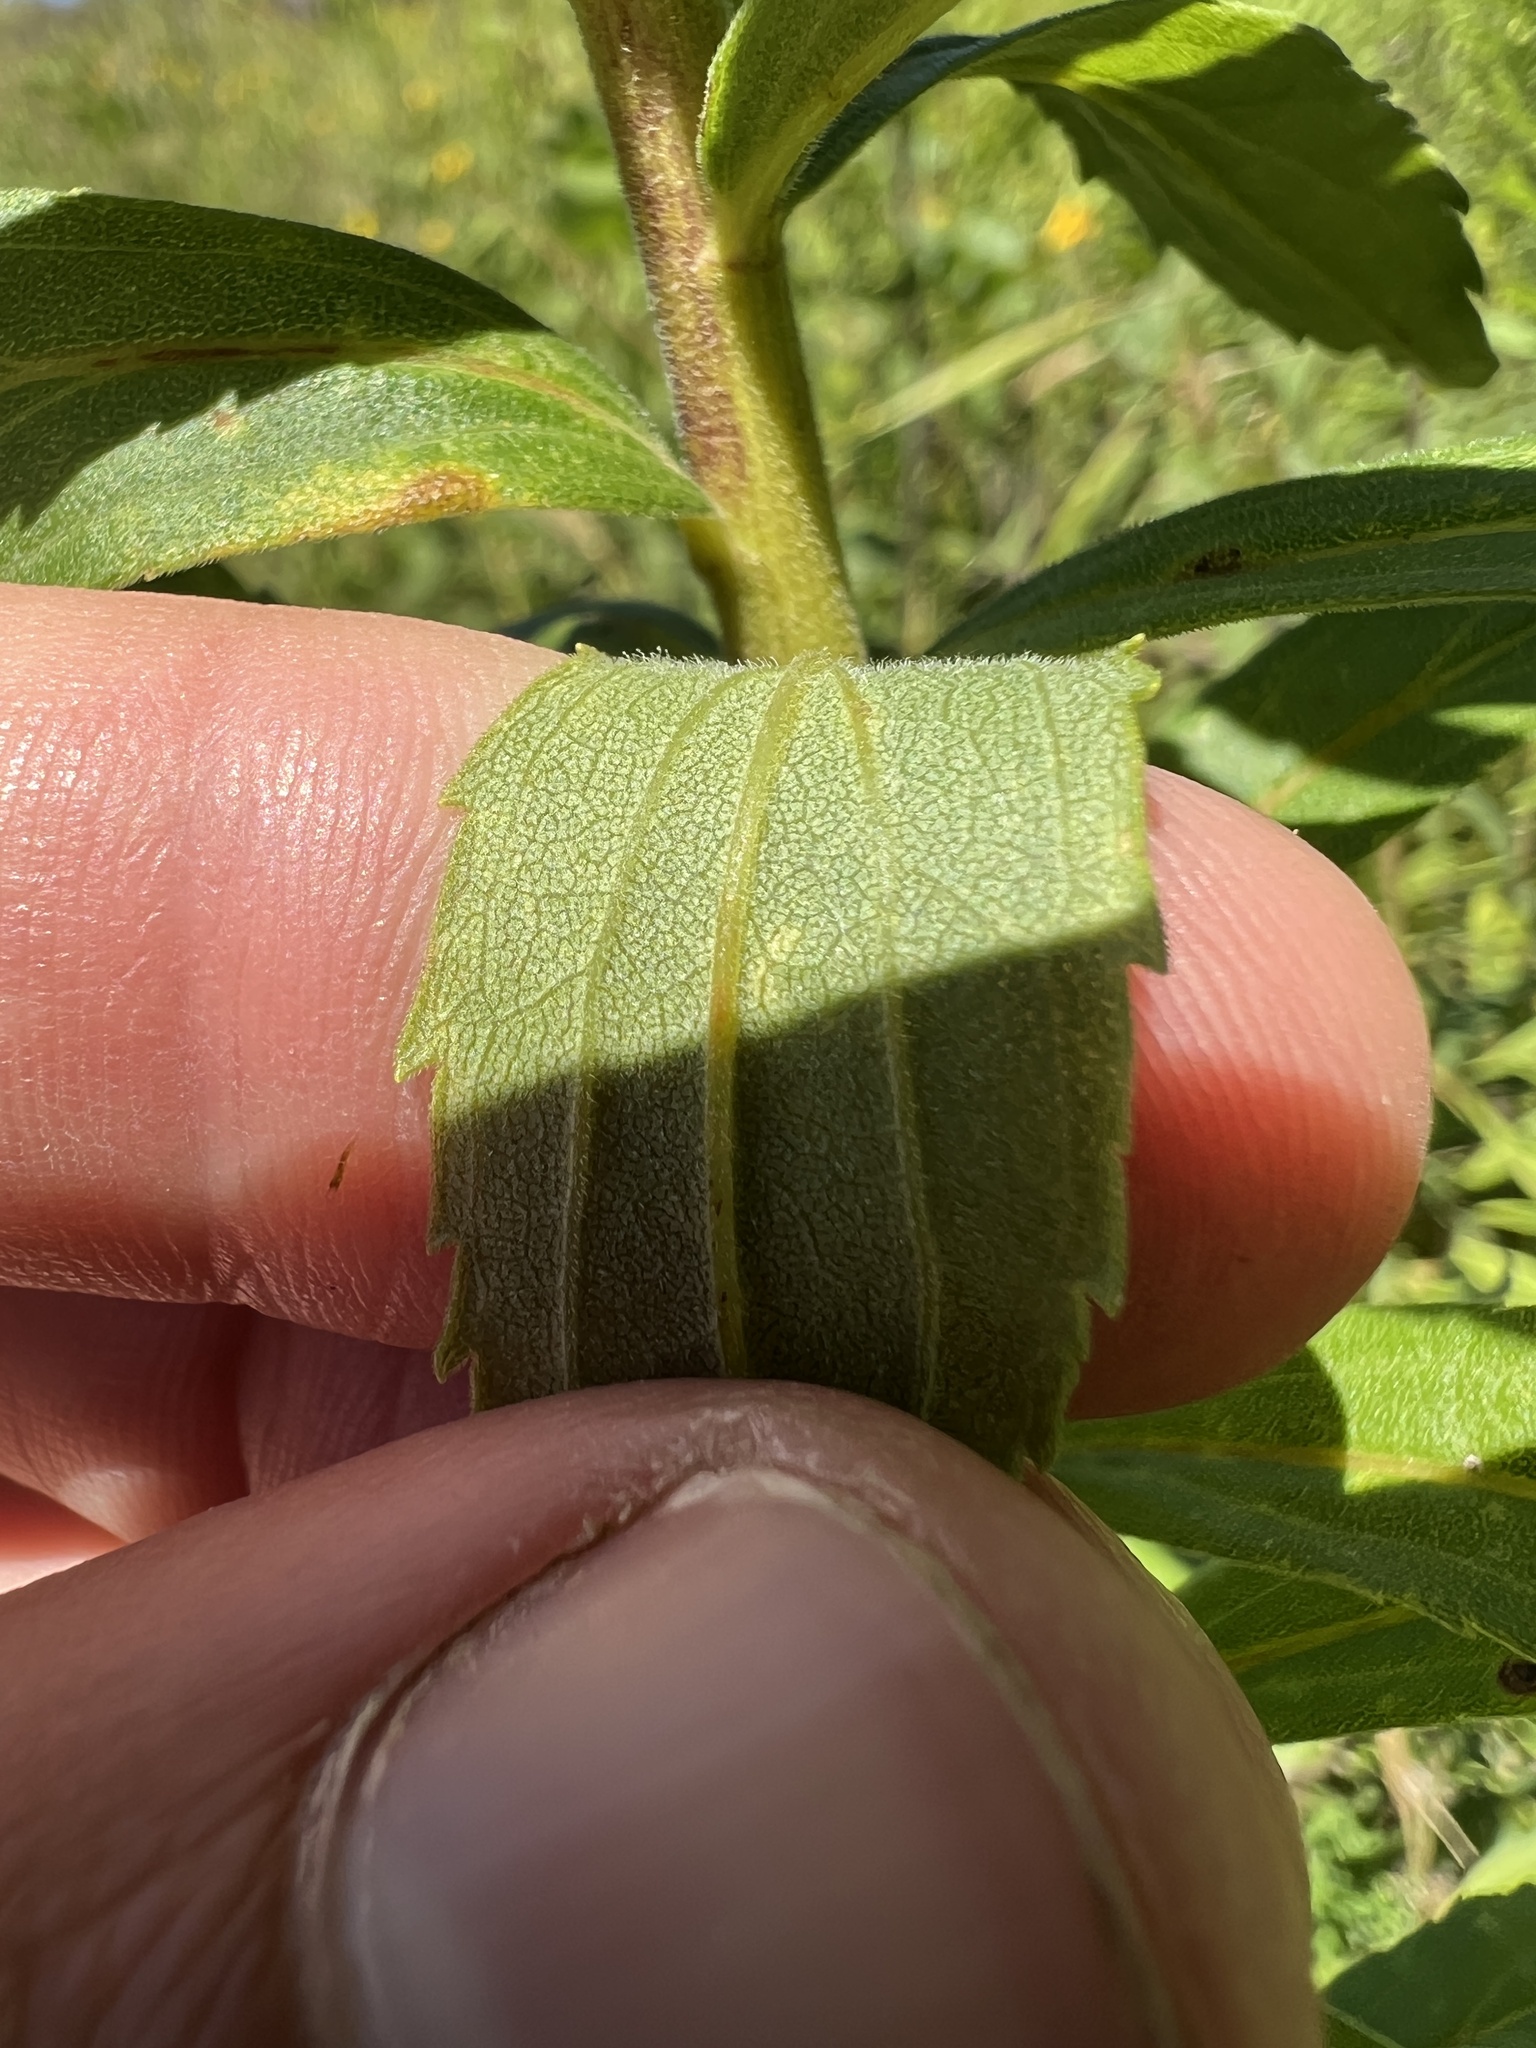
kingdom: Plantae
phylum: Tracheophyta
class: Magnoliopsida
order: Asterales
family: Asteraceae
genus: Solidago
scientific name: Solidago altissima
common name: Late goldenrod
